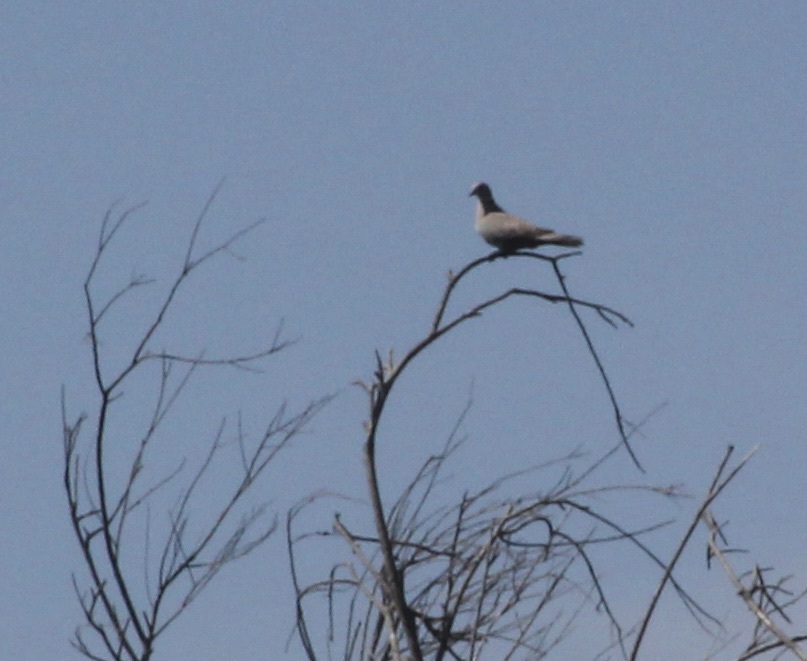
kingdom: Animalia
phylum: Chordata
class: Aves
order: Columbiformes
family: Columbidae
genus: Streptopelia
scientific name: Streptopelia decaocto
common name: Eurasian collared dove
